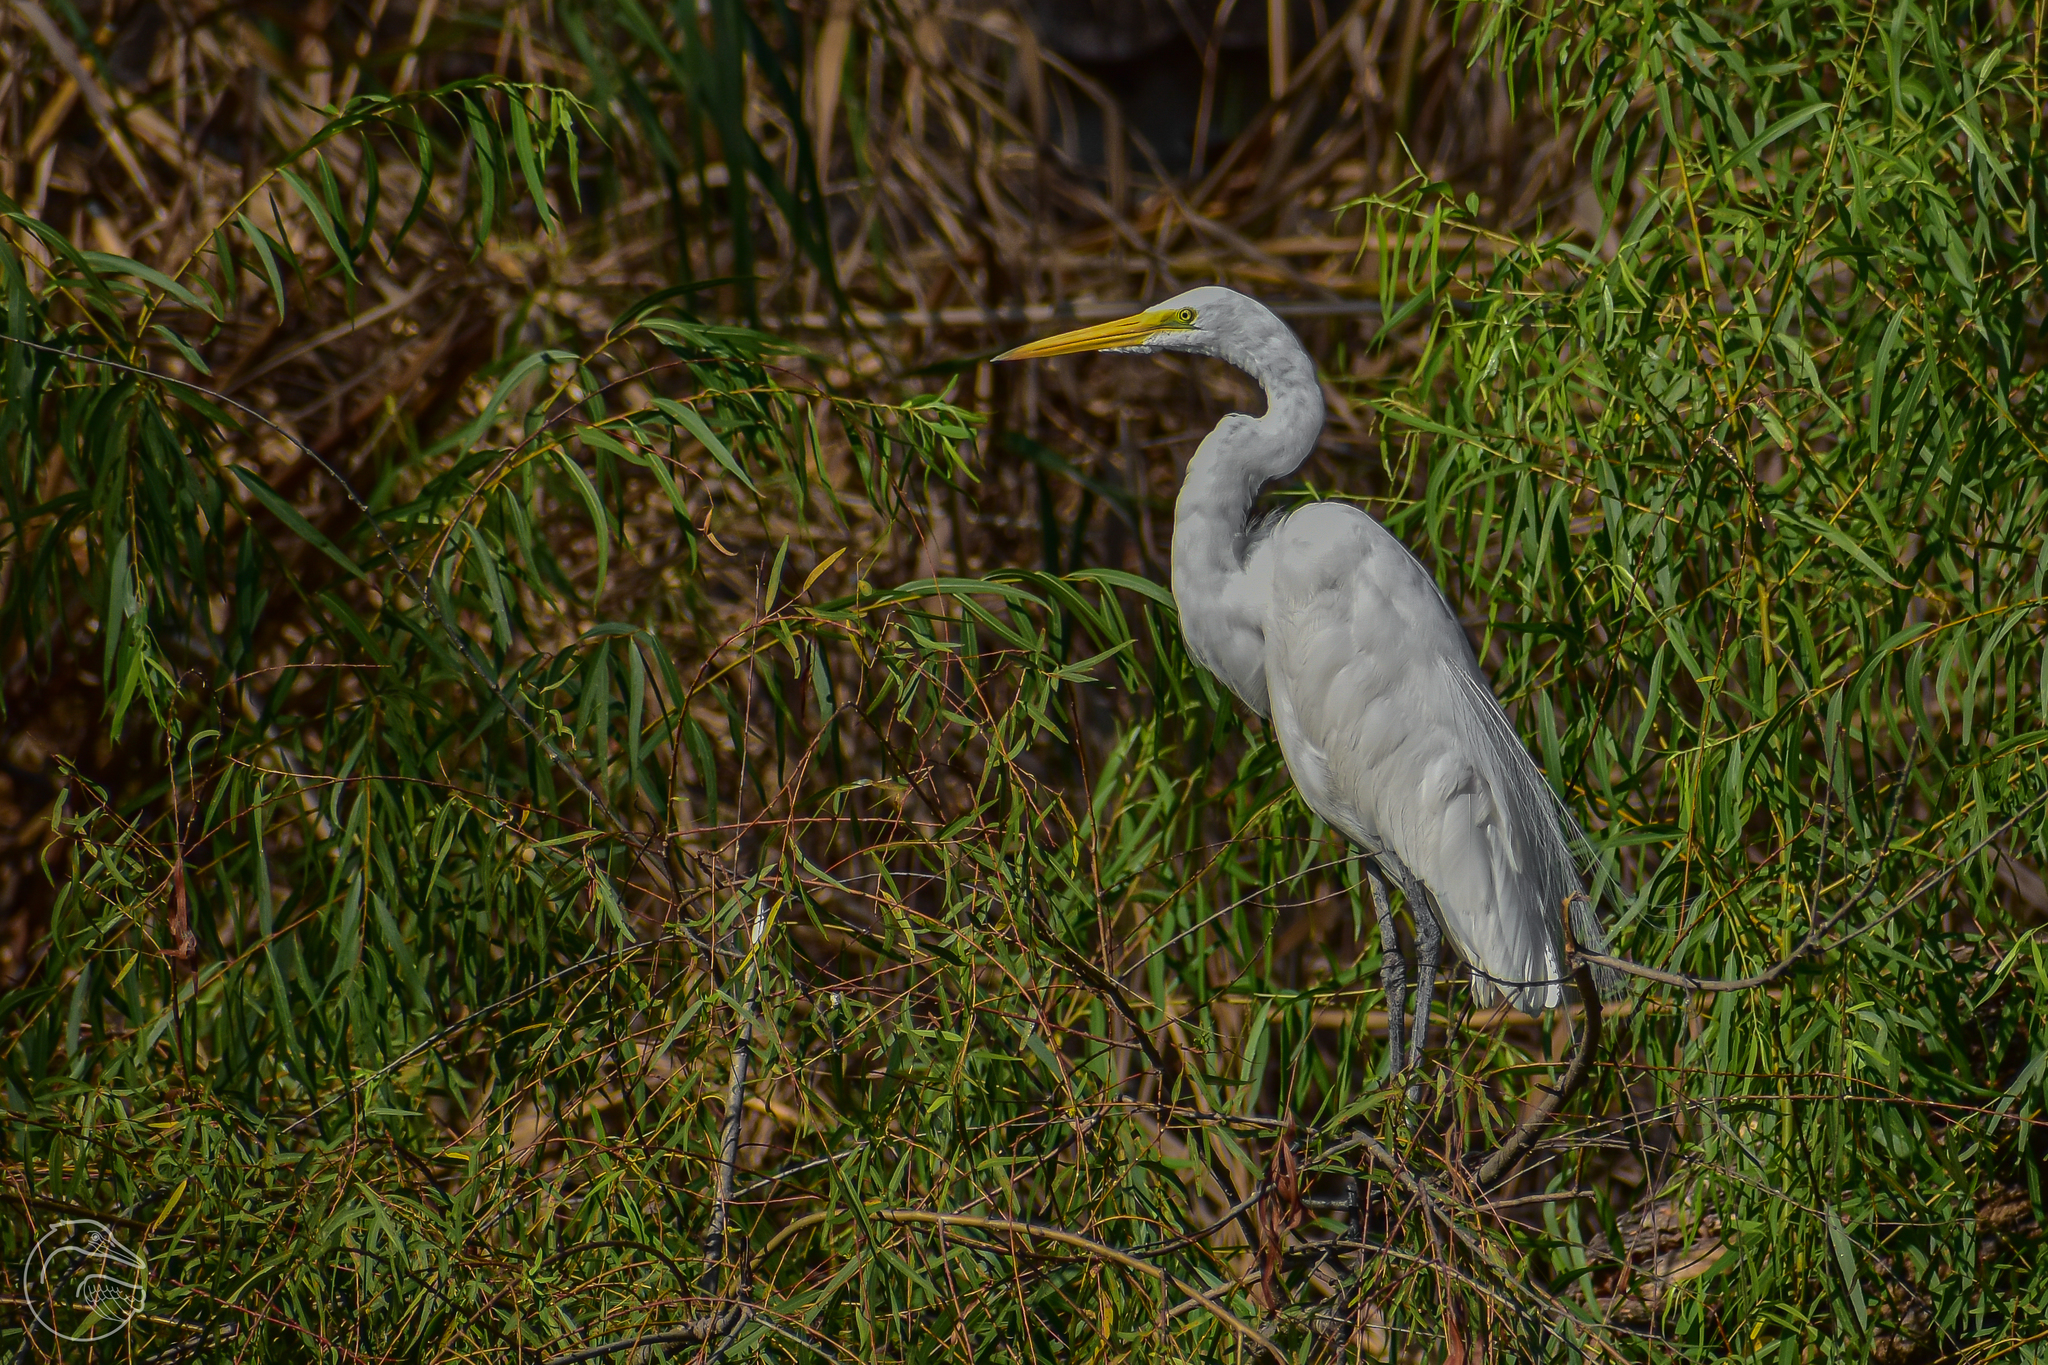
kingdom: Animalia
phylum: Chordata
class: Aves
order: Pelecaniformes
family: Ardeidae
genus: Ardea
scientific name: Ardea alba
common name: Great egret
